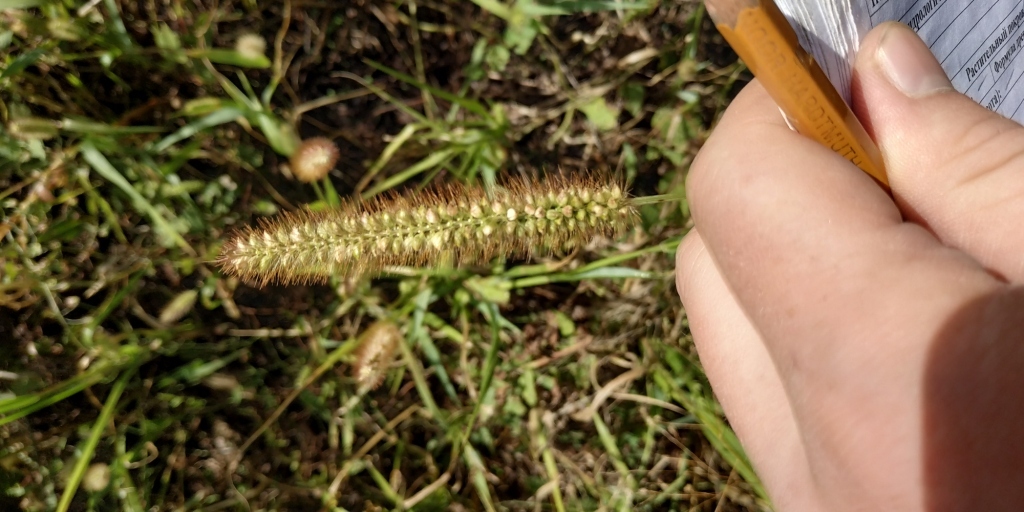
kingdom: Plantae
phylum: Tracheophyta
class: Liliopsida
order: Poales
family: Poaceae
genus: Setaria
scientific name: Setaria pumila
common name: Yellow bristle-grass
